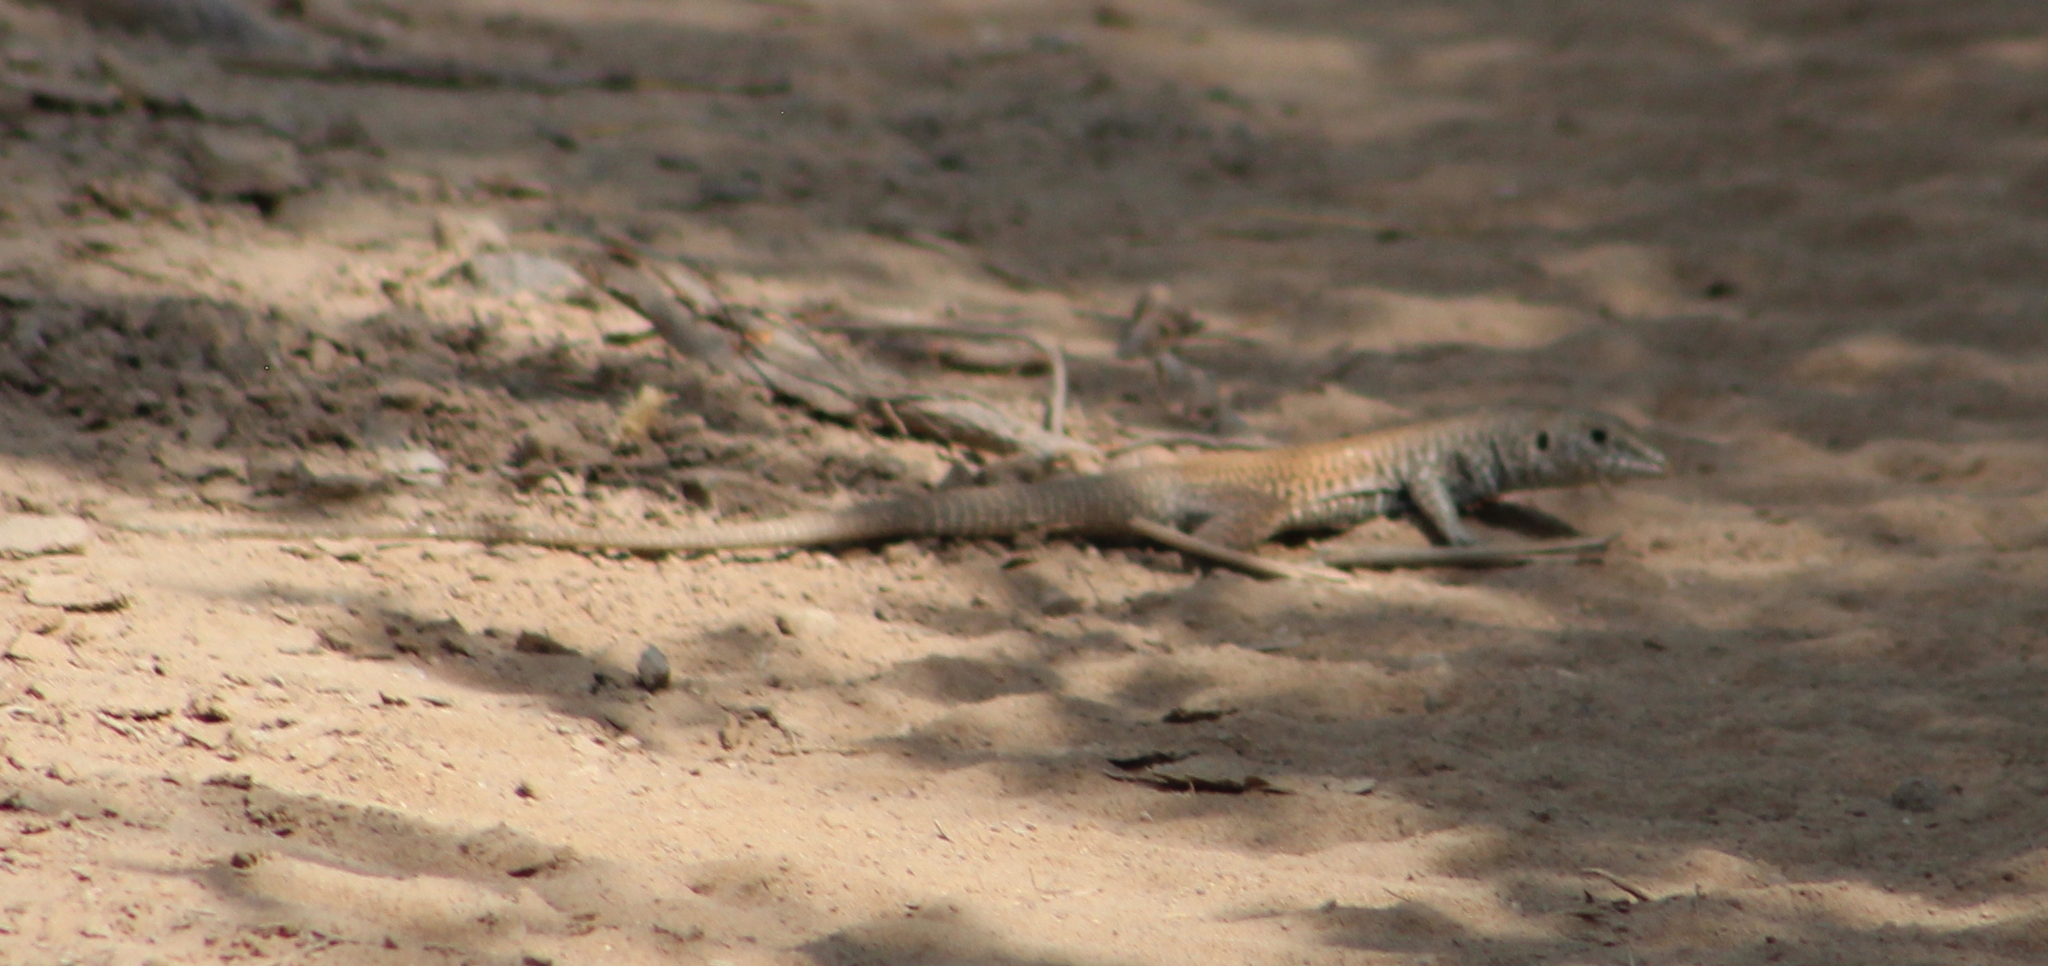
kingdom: Animalia
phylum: Chordata
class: Squamata
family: Teiidae
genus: Aspidoscelis
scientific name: Aspidoscelis tigris
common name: Tiger whiptail
